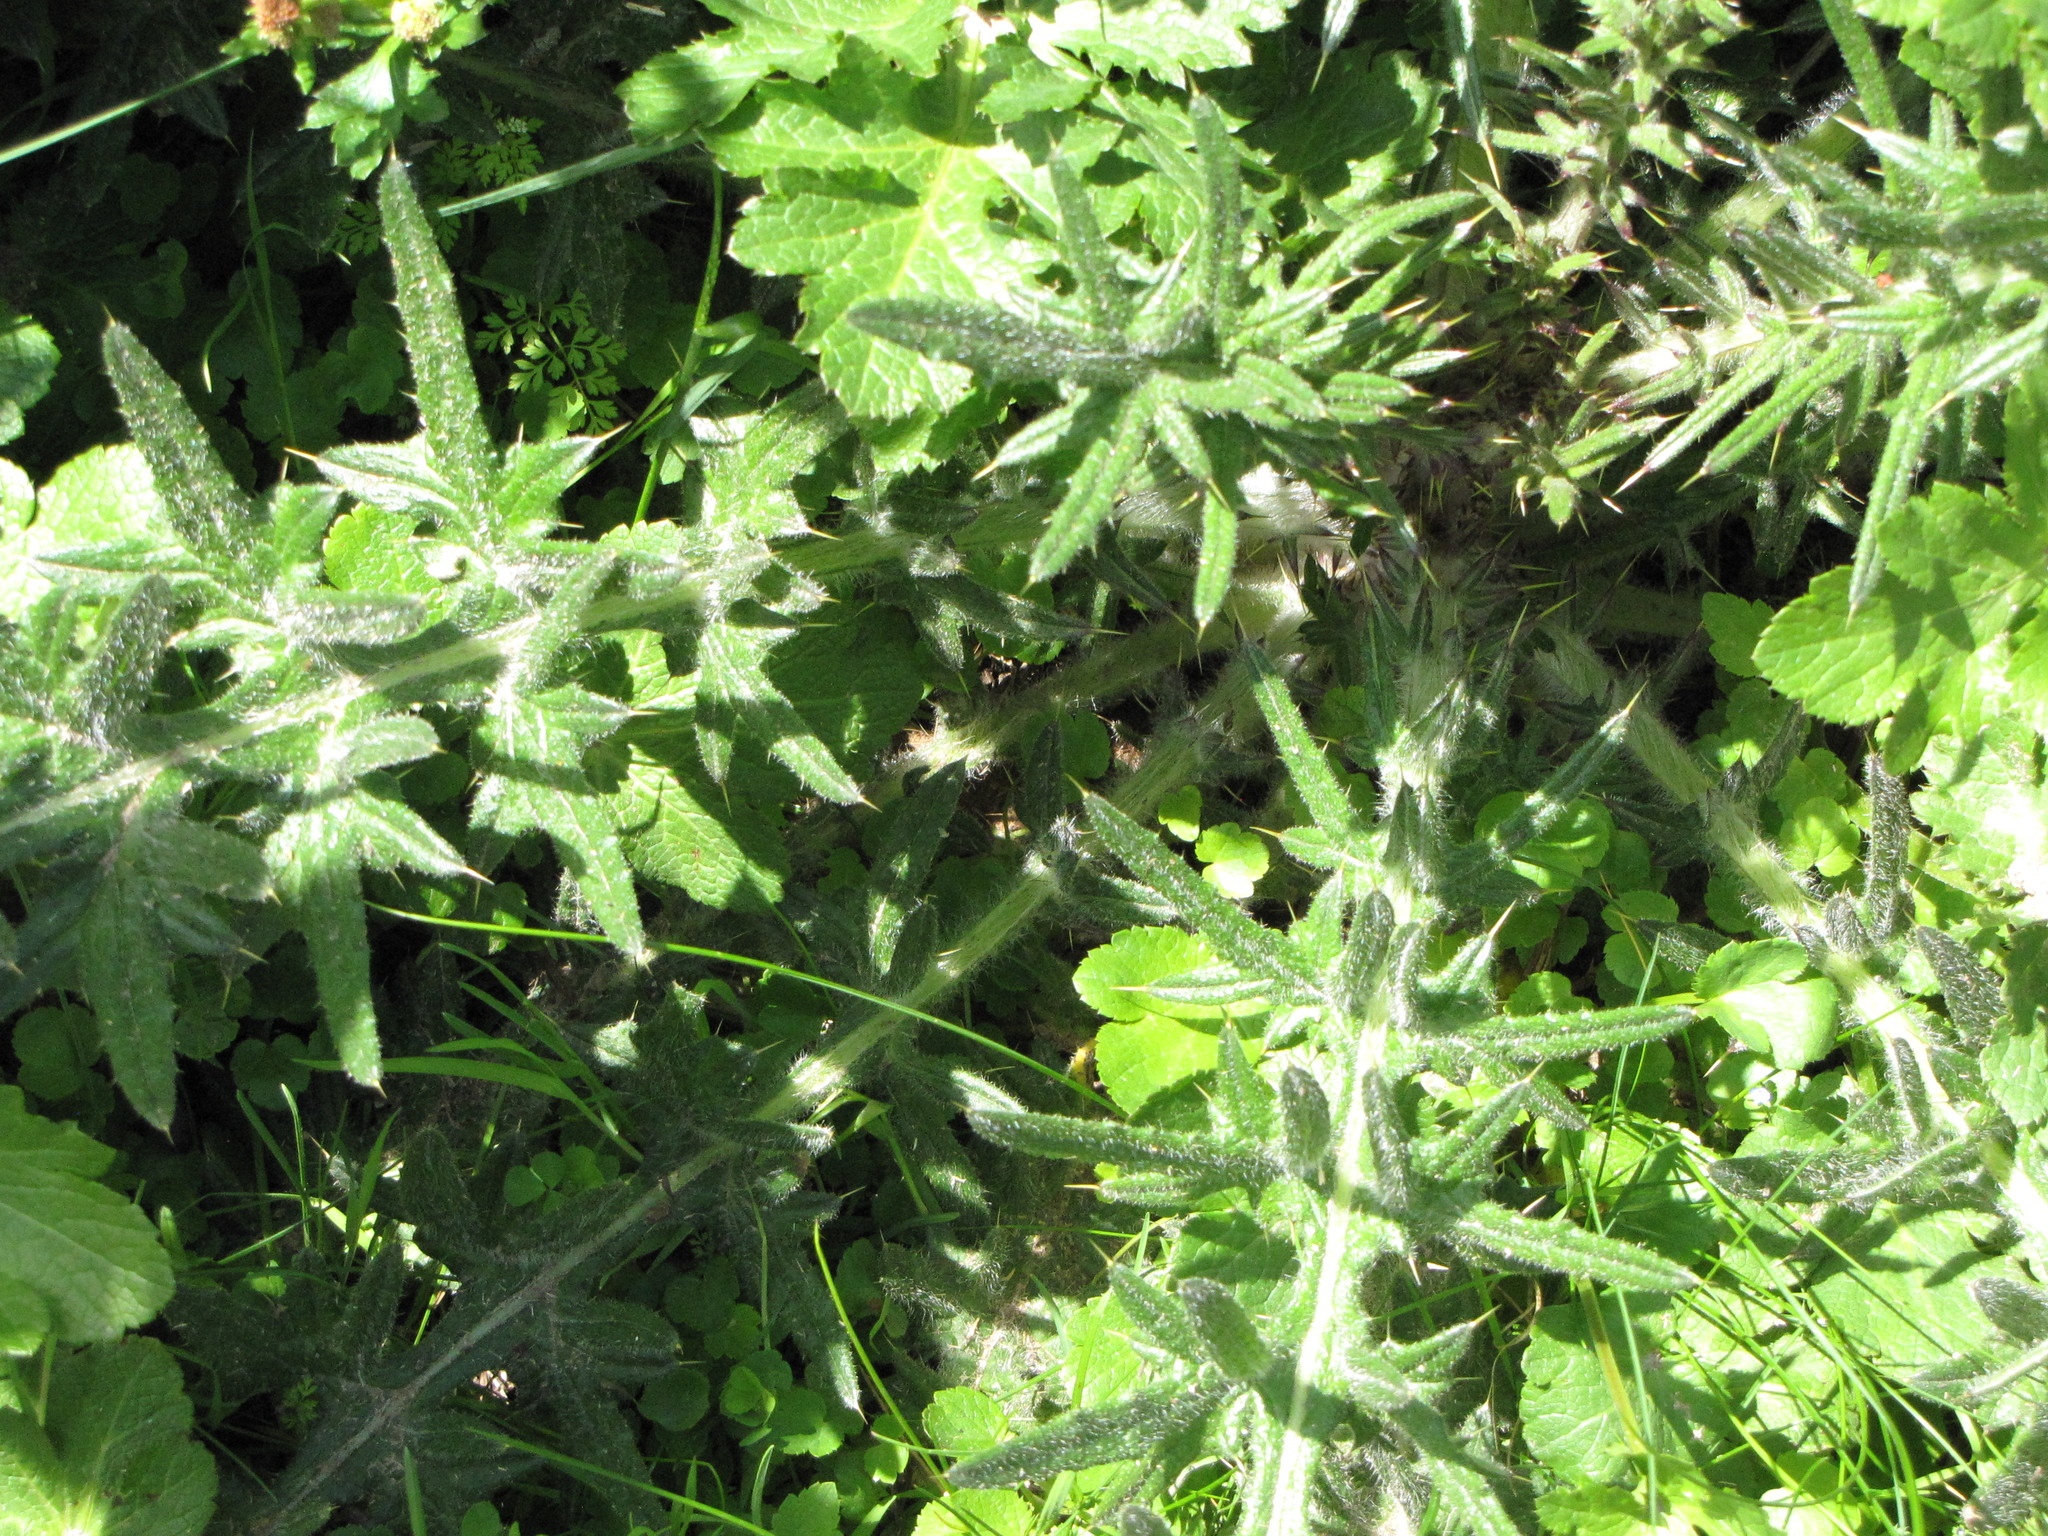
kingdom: Plantae
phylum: Tracheophyta
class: Magnoliopsida
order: Asterales
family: Asteraceae
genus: Cirsium
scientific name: Cirsium vulgare
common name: Bull thistle
